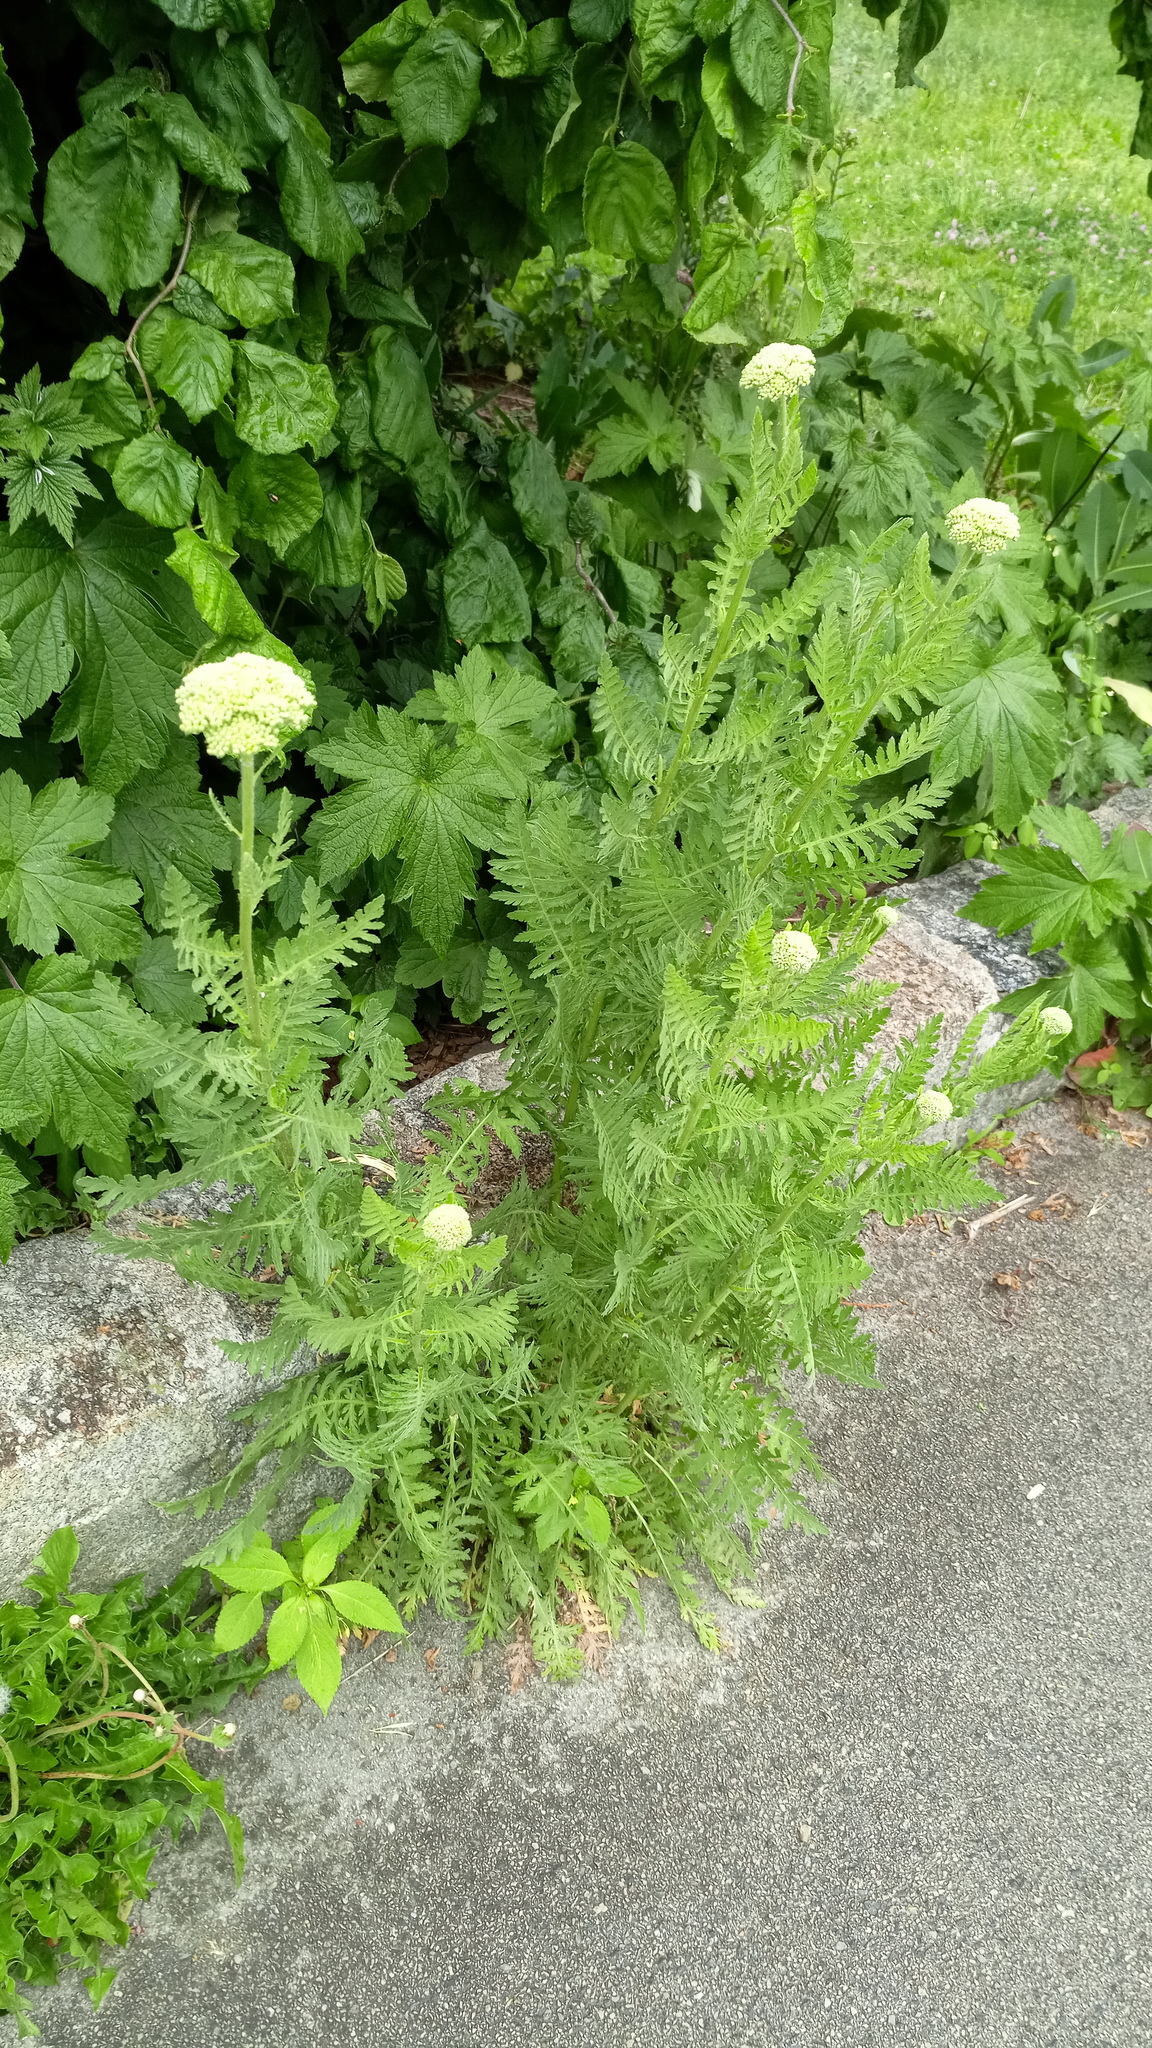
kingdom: Plantae
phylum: Tracheophyta
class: Magnoliopsida
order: Asterales
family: Asteraceae
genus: Achillea
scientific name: Achillea filipendulina
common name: Fernleaf yarrow
